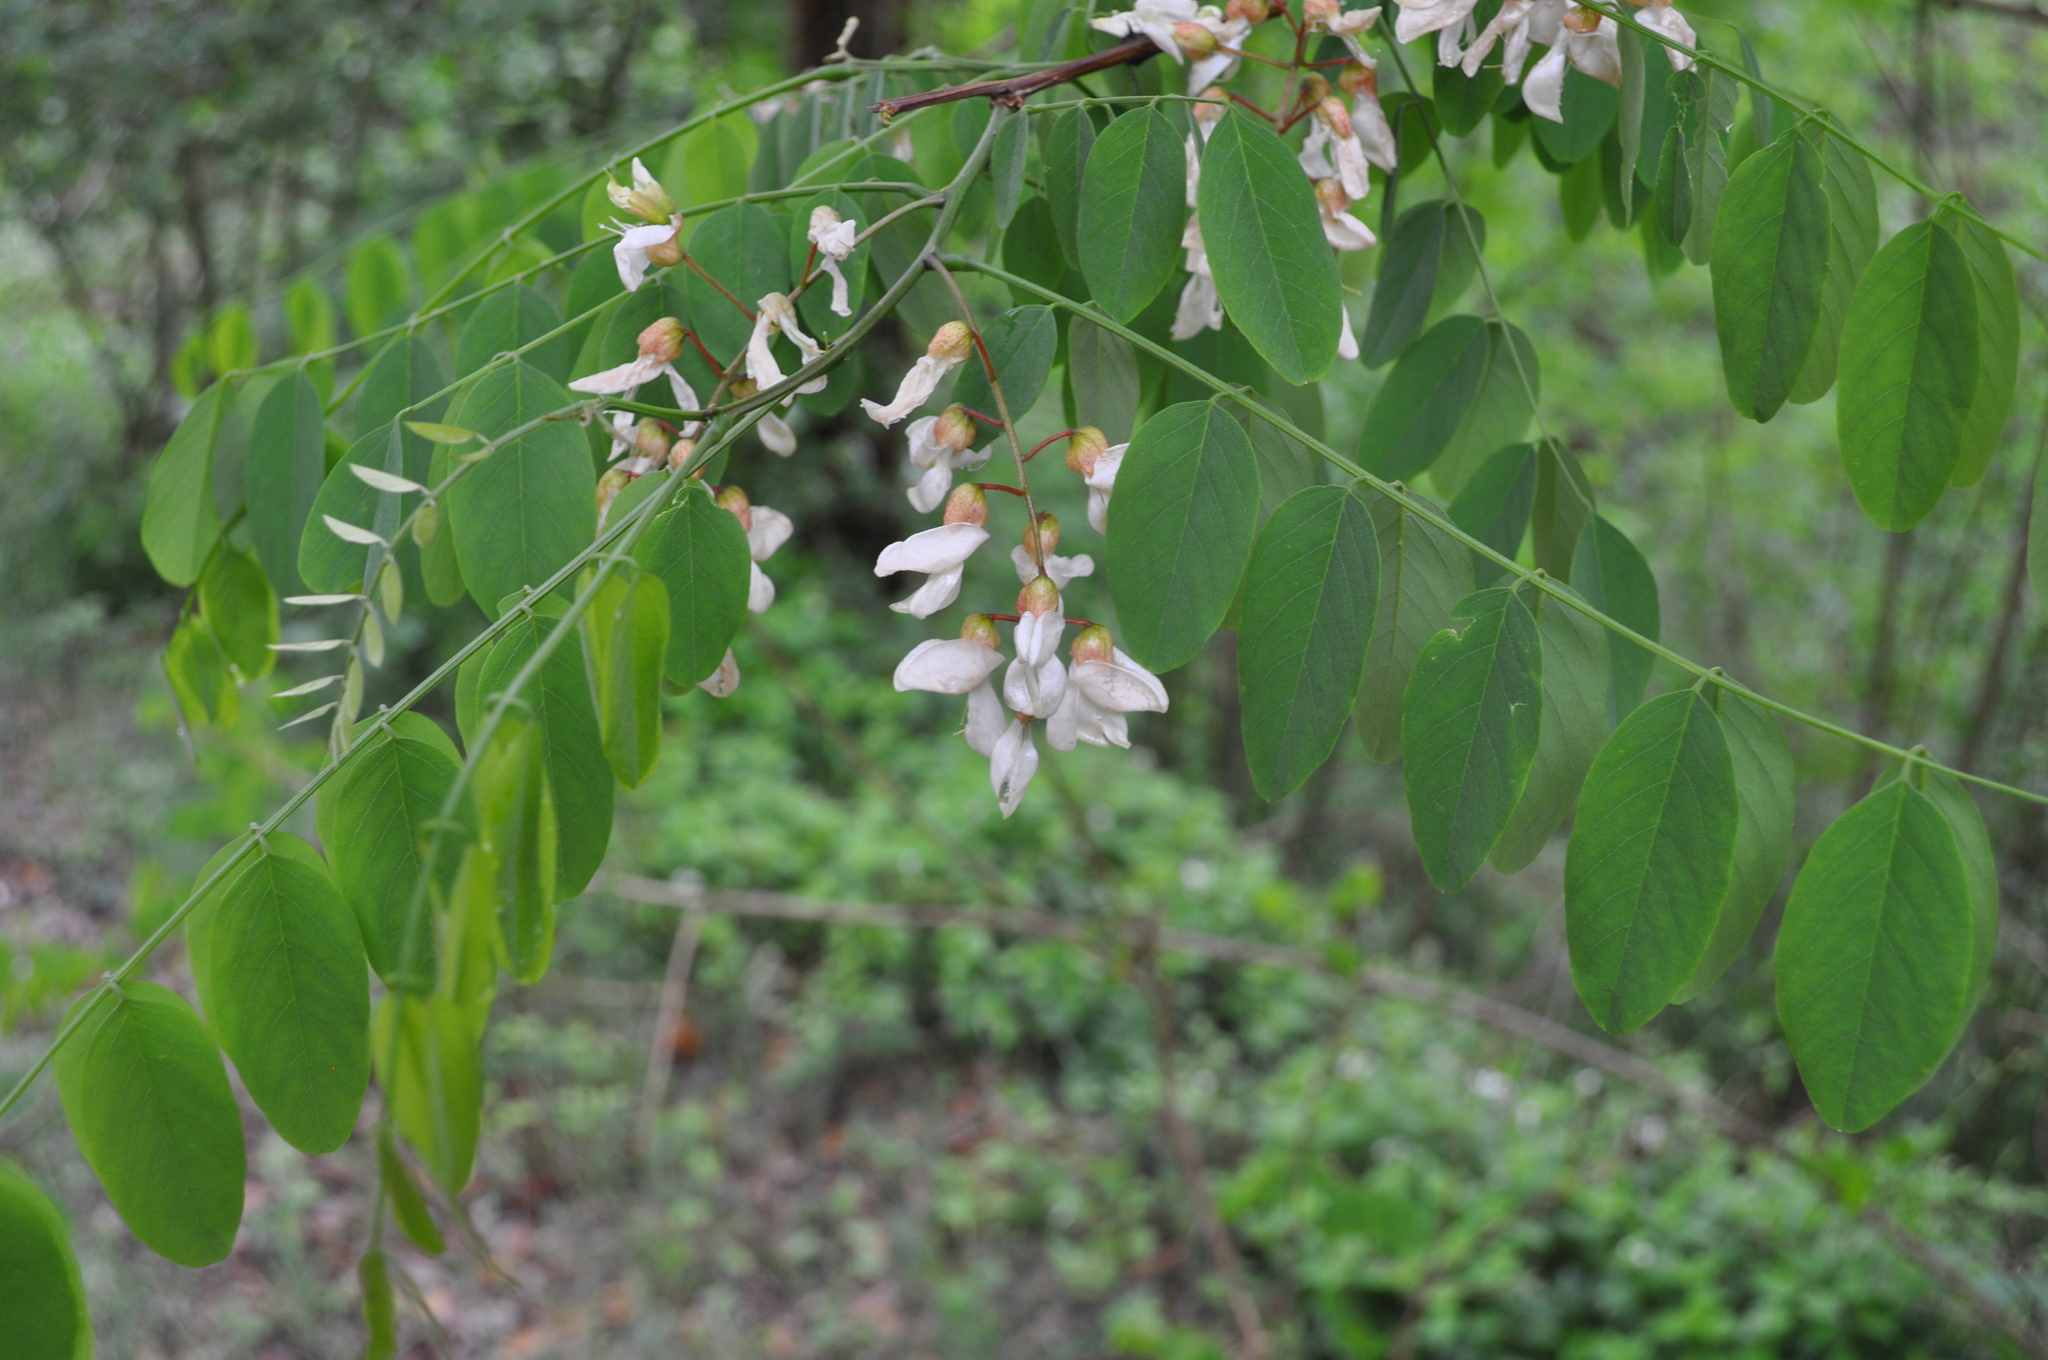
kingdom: Plantae
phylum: Tracheophyta
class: Magnoliopsida
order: Fabales
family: Fabaceae
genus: Robinia
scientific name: Robinia pseudoacacia
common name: Black locust
